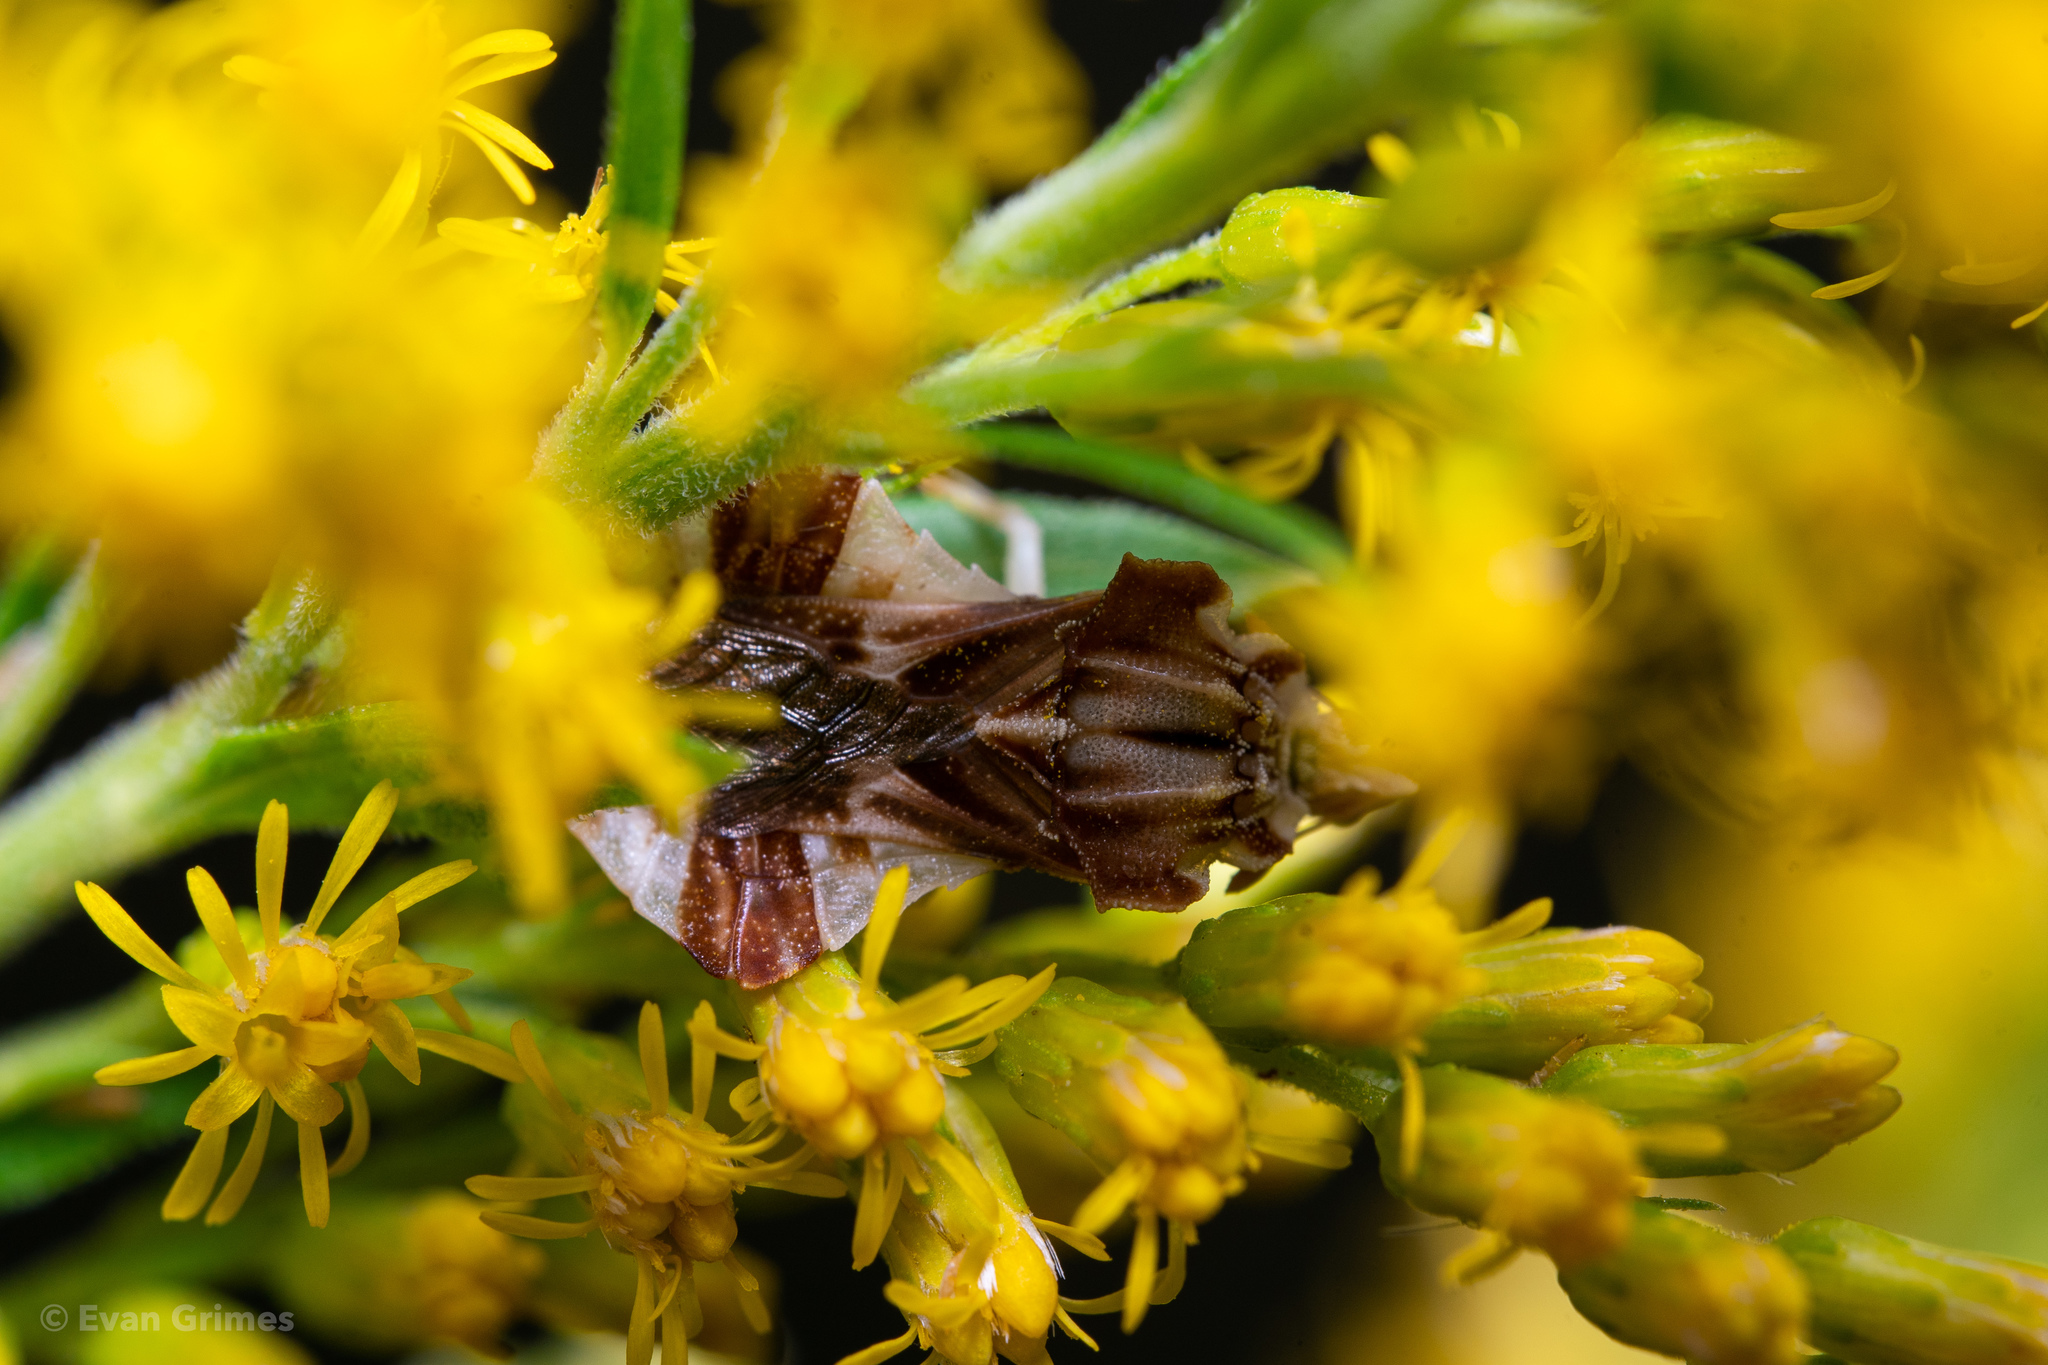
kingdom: Animalia
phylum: Arthropoda
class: Insecta
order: Hemiptera
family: Reduviidae
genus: Phymata
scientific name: Phymata fasciata
